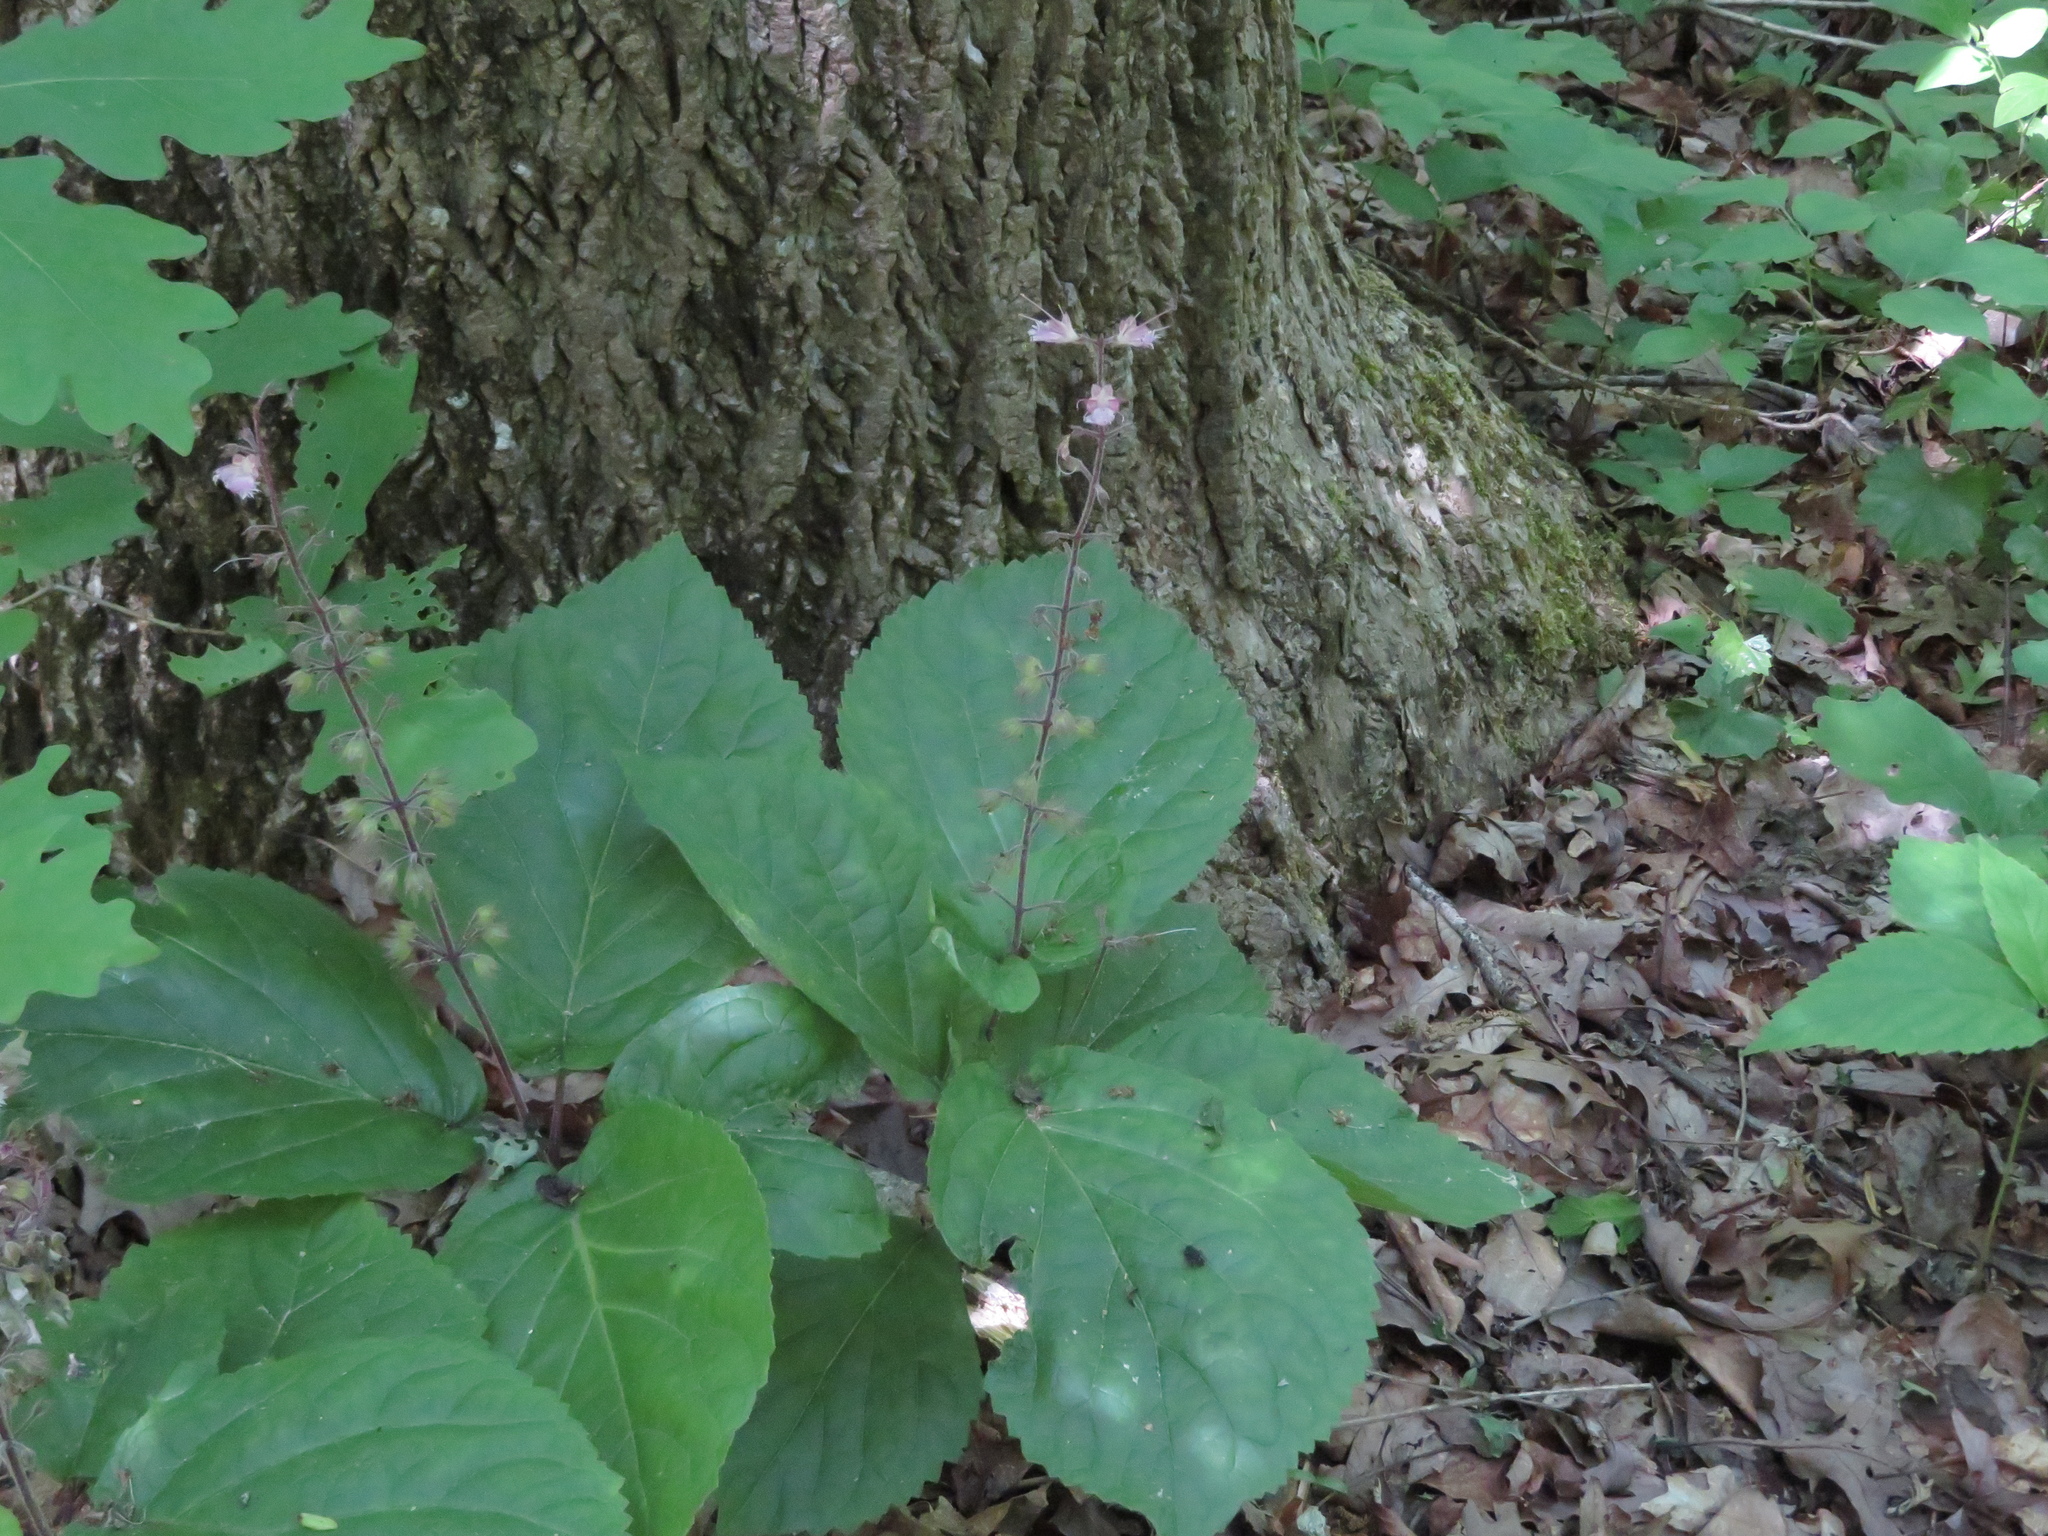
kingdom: Plantae
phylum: Tracheophyta
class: Magnoliopsida
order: Lamiales
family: Lamiaceae
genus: Collinsonia
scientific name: Collinsonia verticillata
